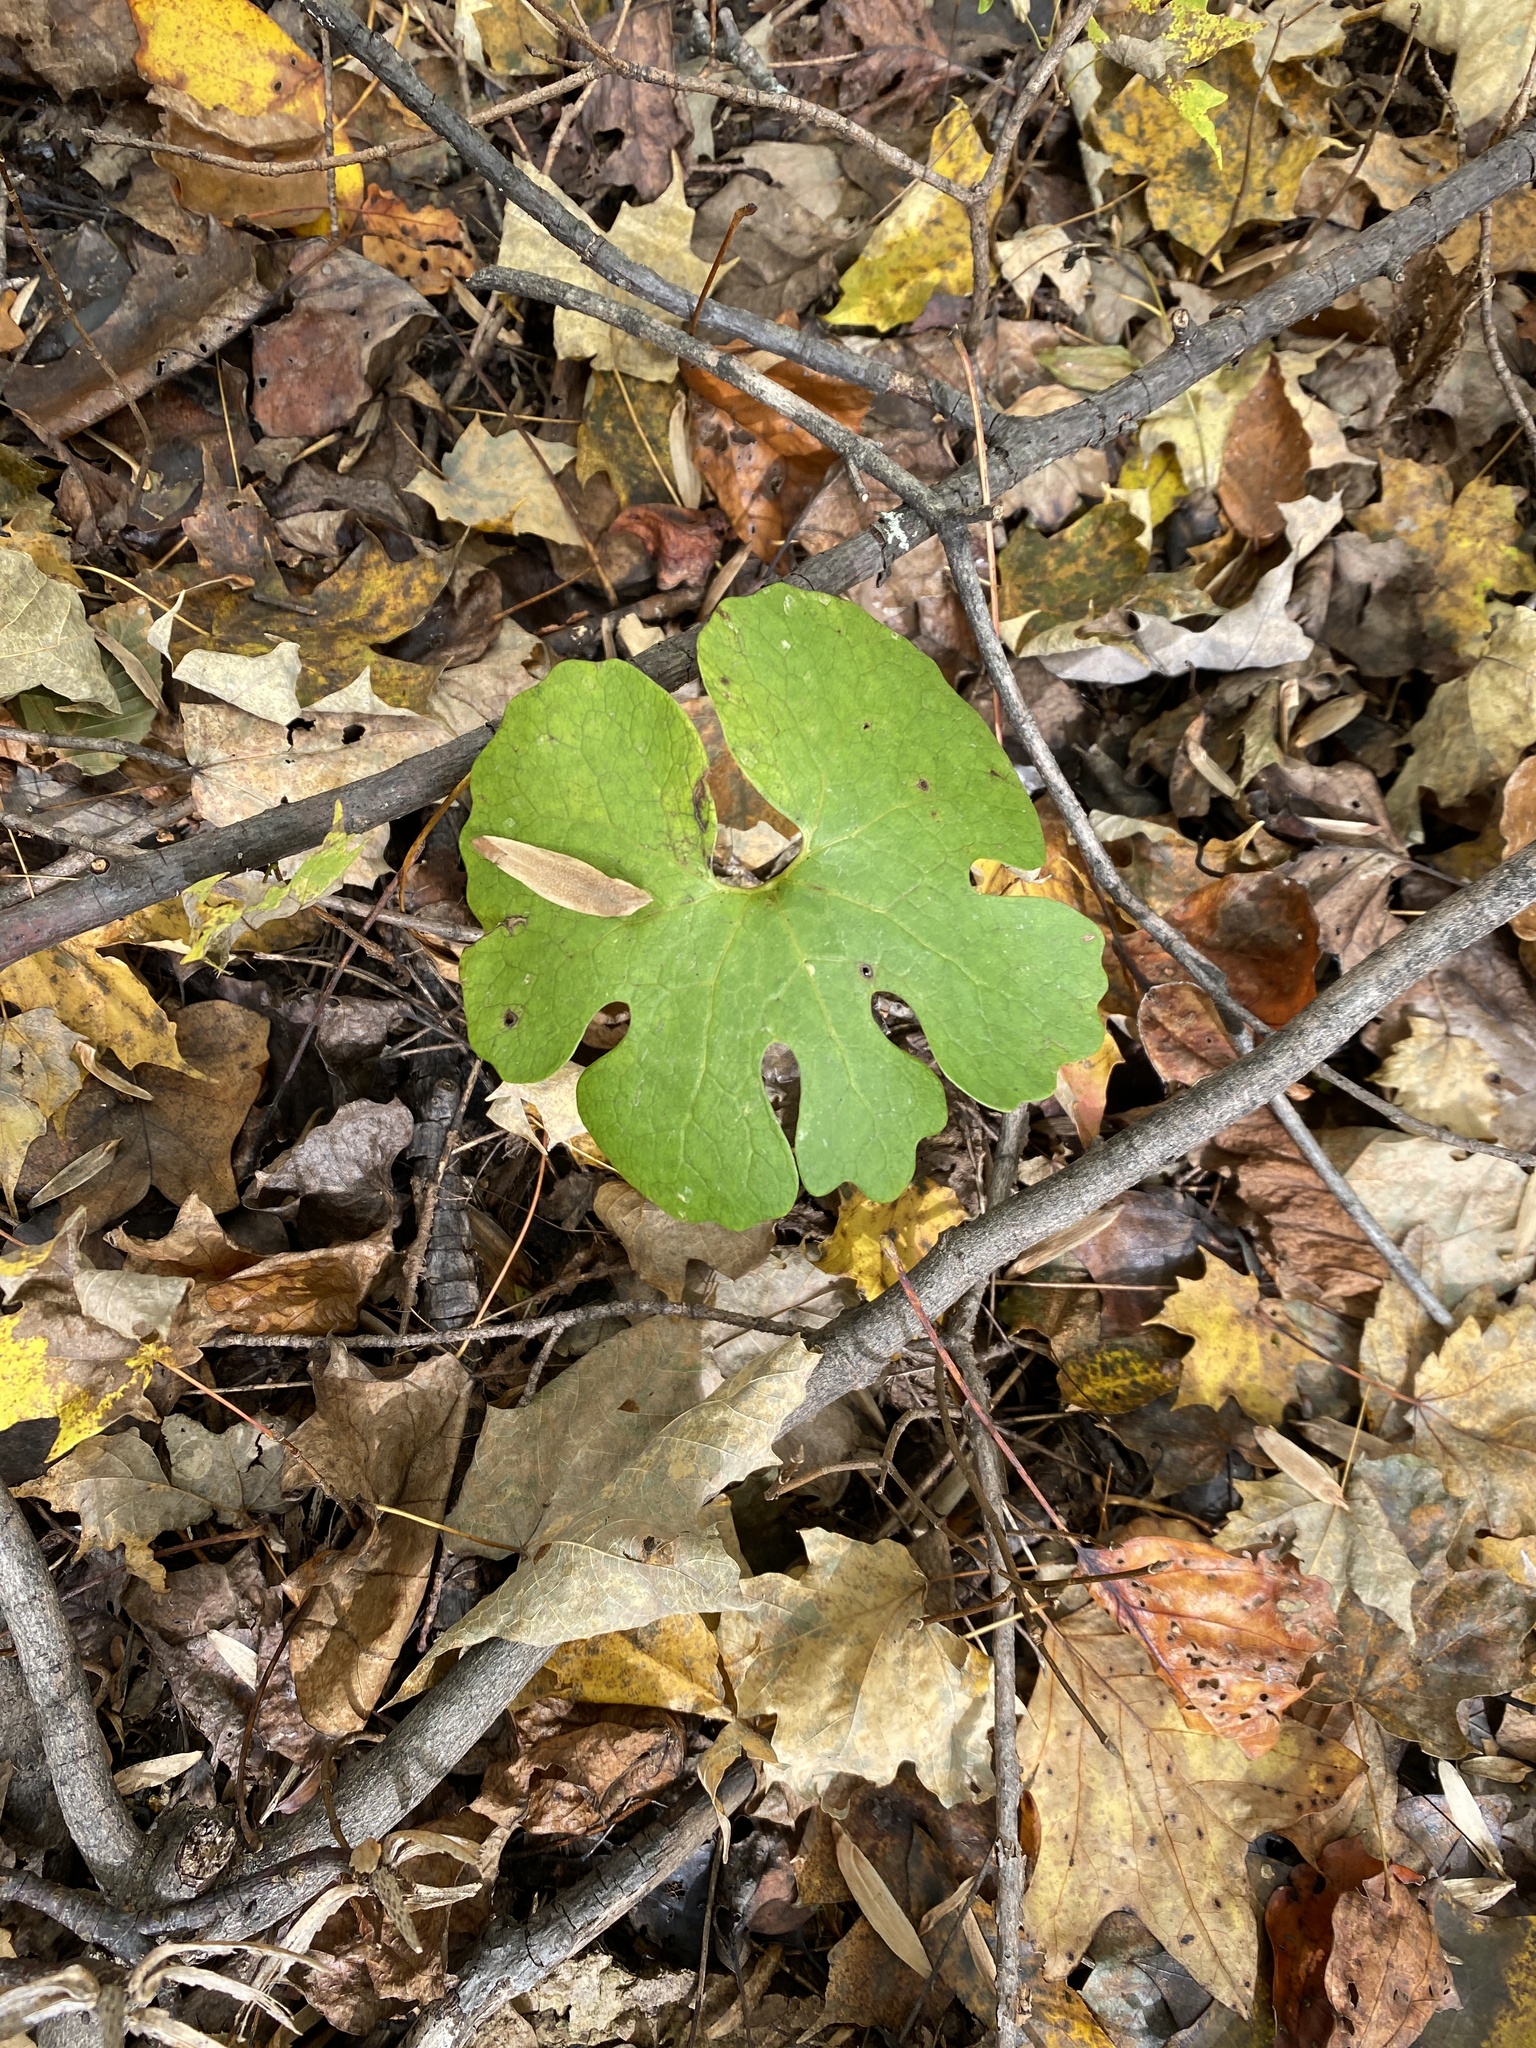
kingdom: Plantae
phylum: Tracheophyta
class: Magnoliopsida
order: Ranunculales
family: Papaveraceae
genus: Sanguinaria
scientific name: Sanguinaria canadensis
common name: Bloodroot
